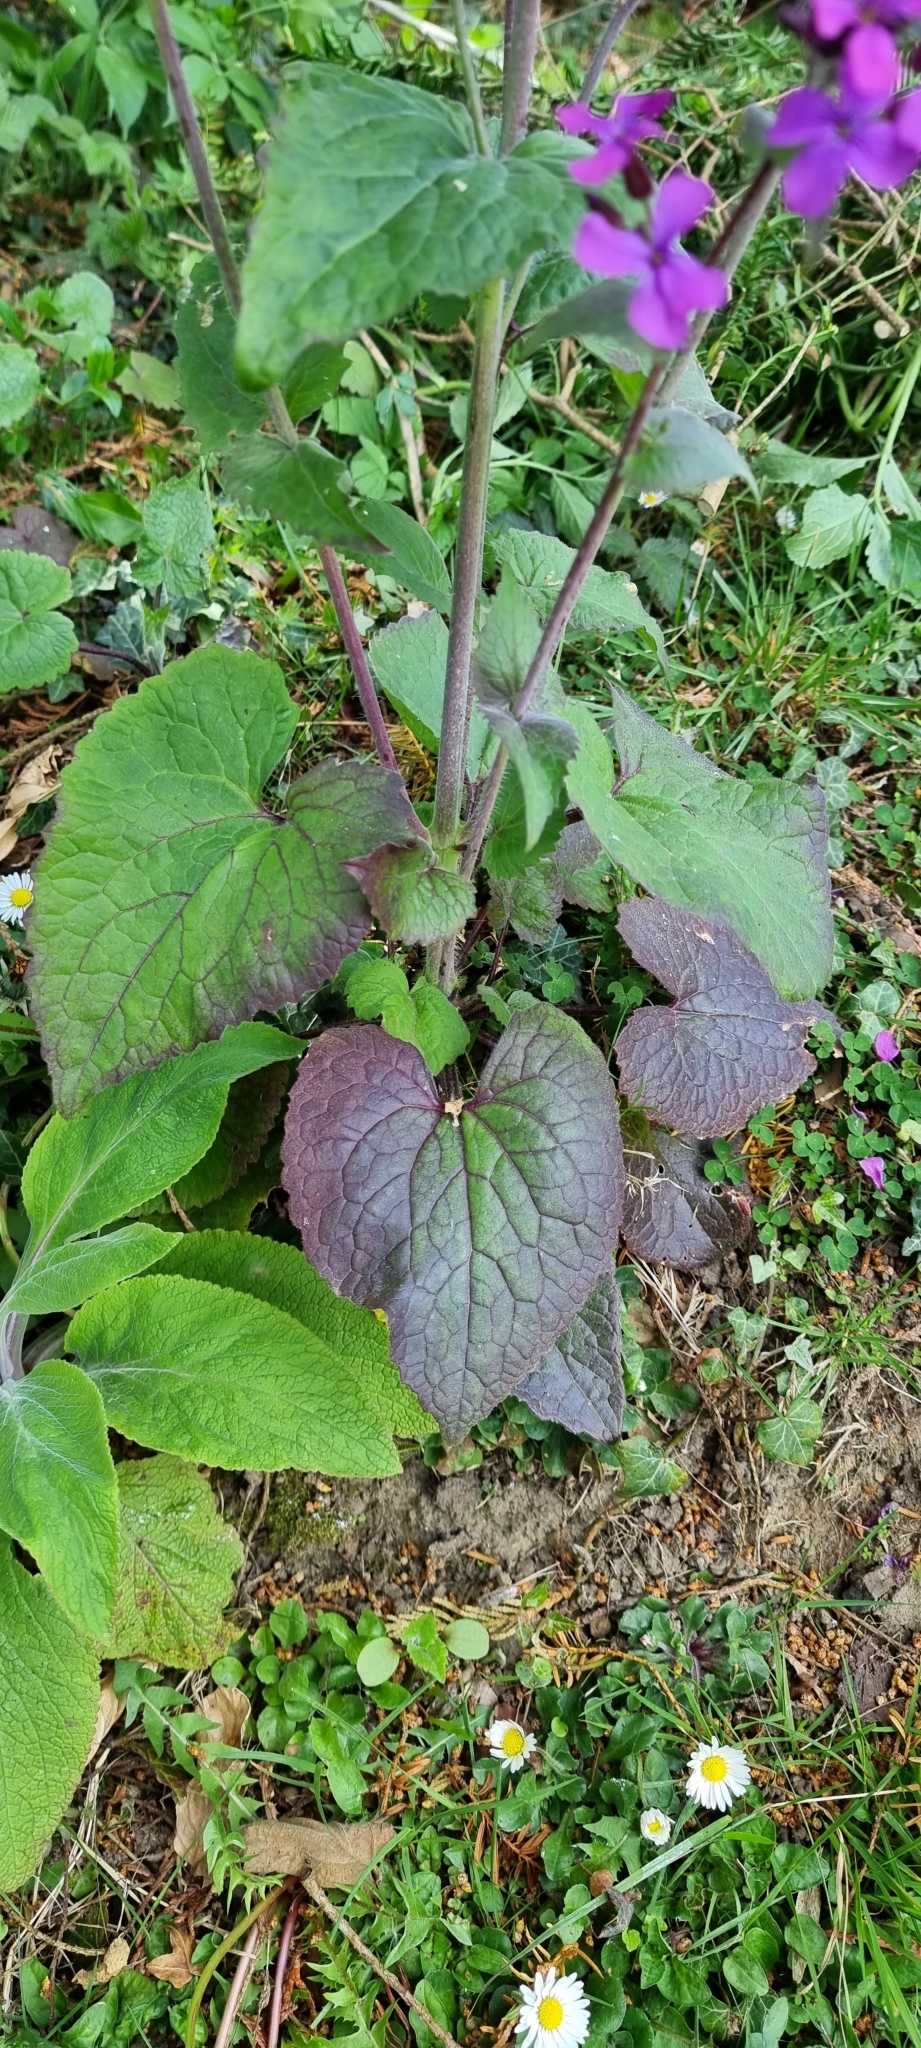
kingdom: Plantae
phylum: Tracheophyta
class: Magnoliopsida
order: Brassicales
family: Brassicaceae
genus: Lunaria
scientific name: Lunaria annua
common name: Honesty
